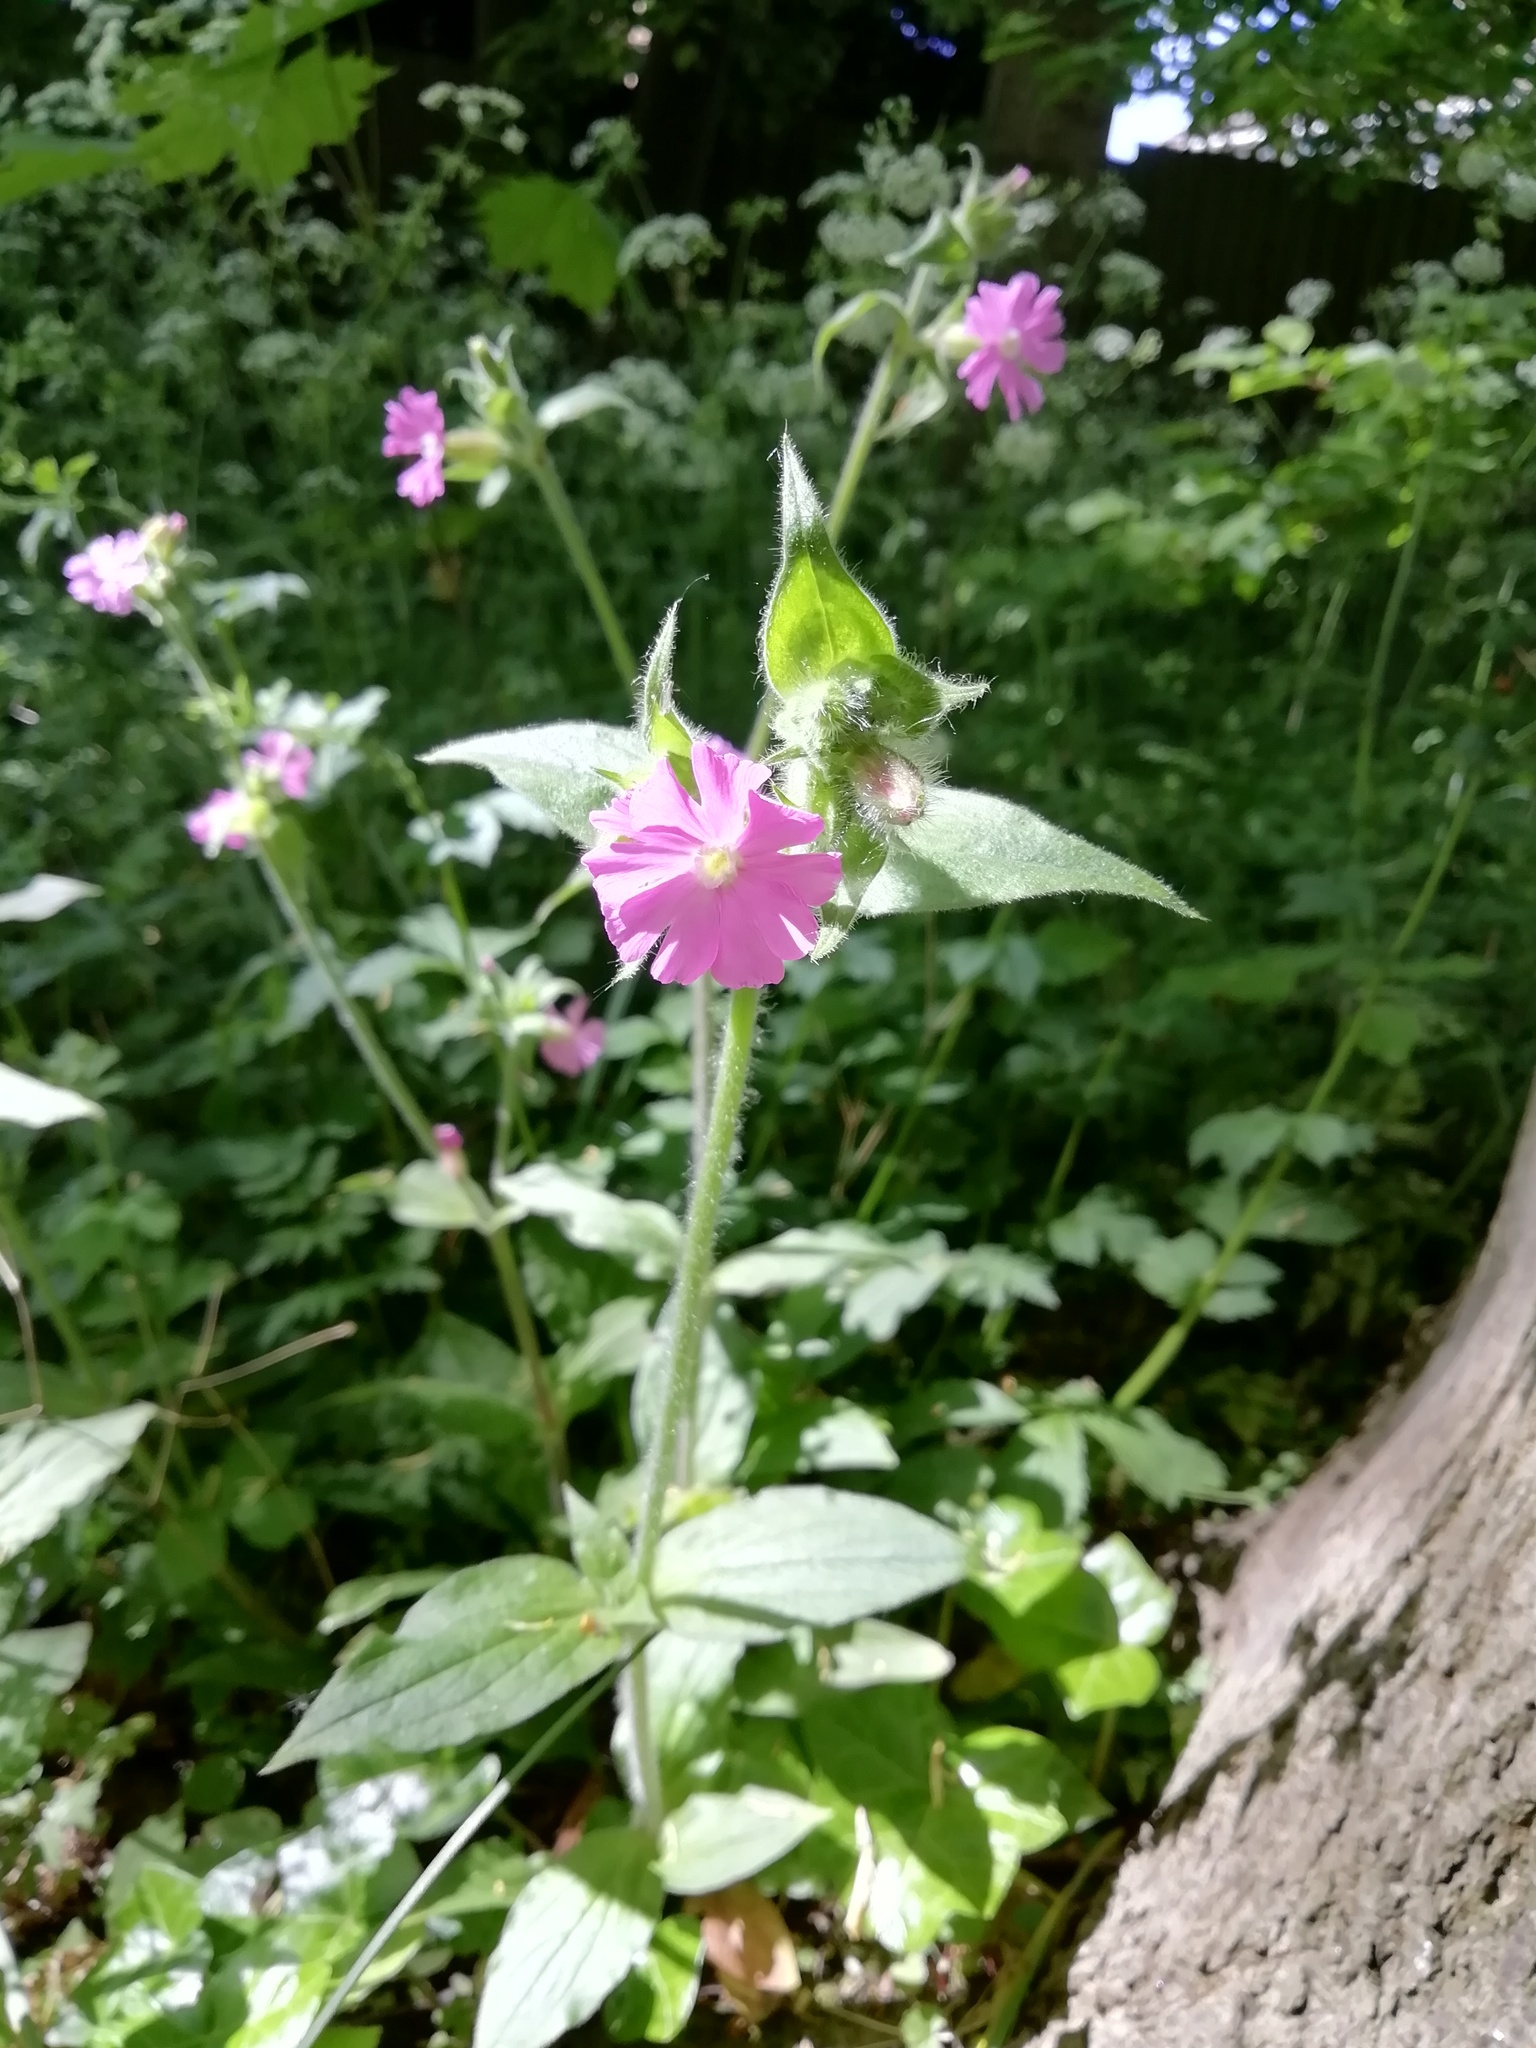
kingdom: Plantae
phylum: Tracheophyta
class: Magnoliopsida
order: Caryophyllales
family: Caryophyllaceae
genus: Silene
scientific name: Silene dioica
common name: Red campion
